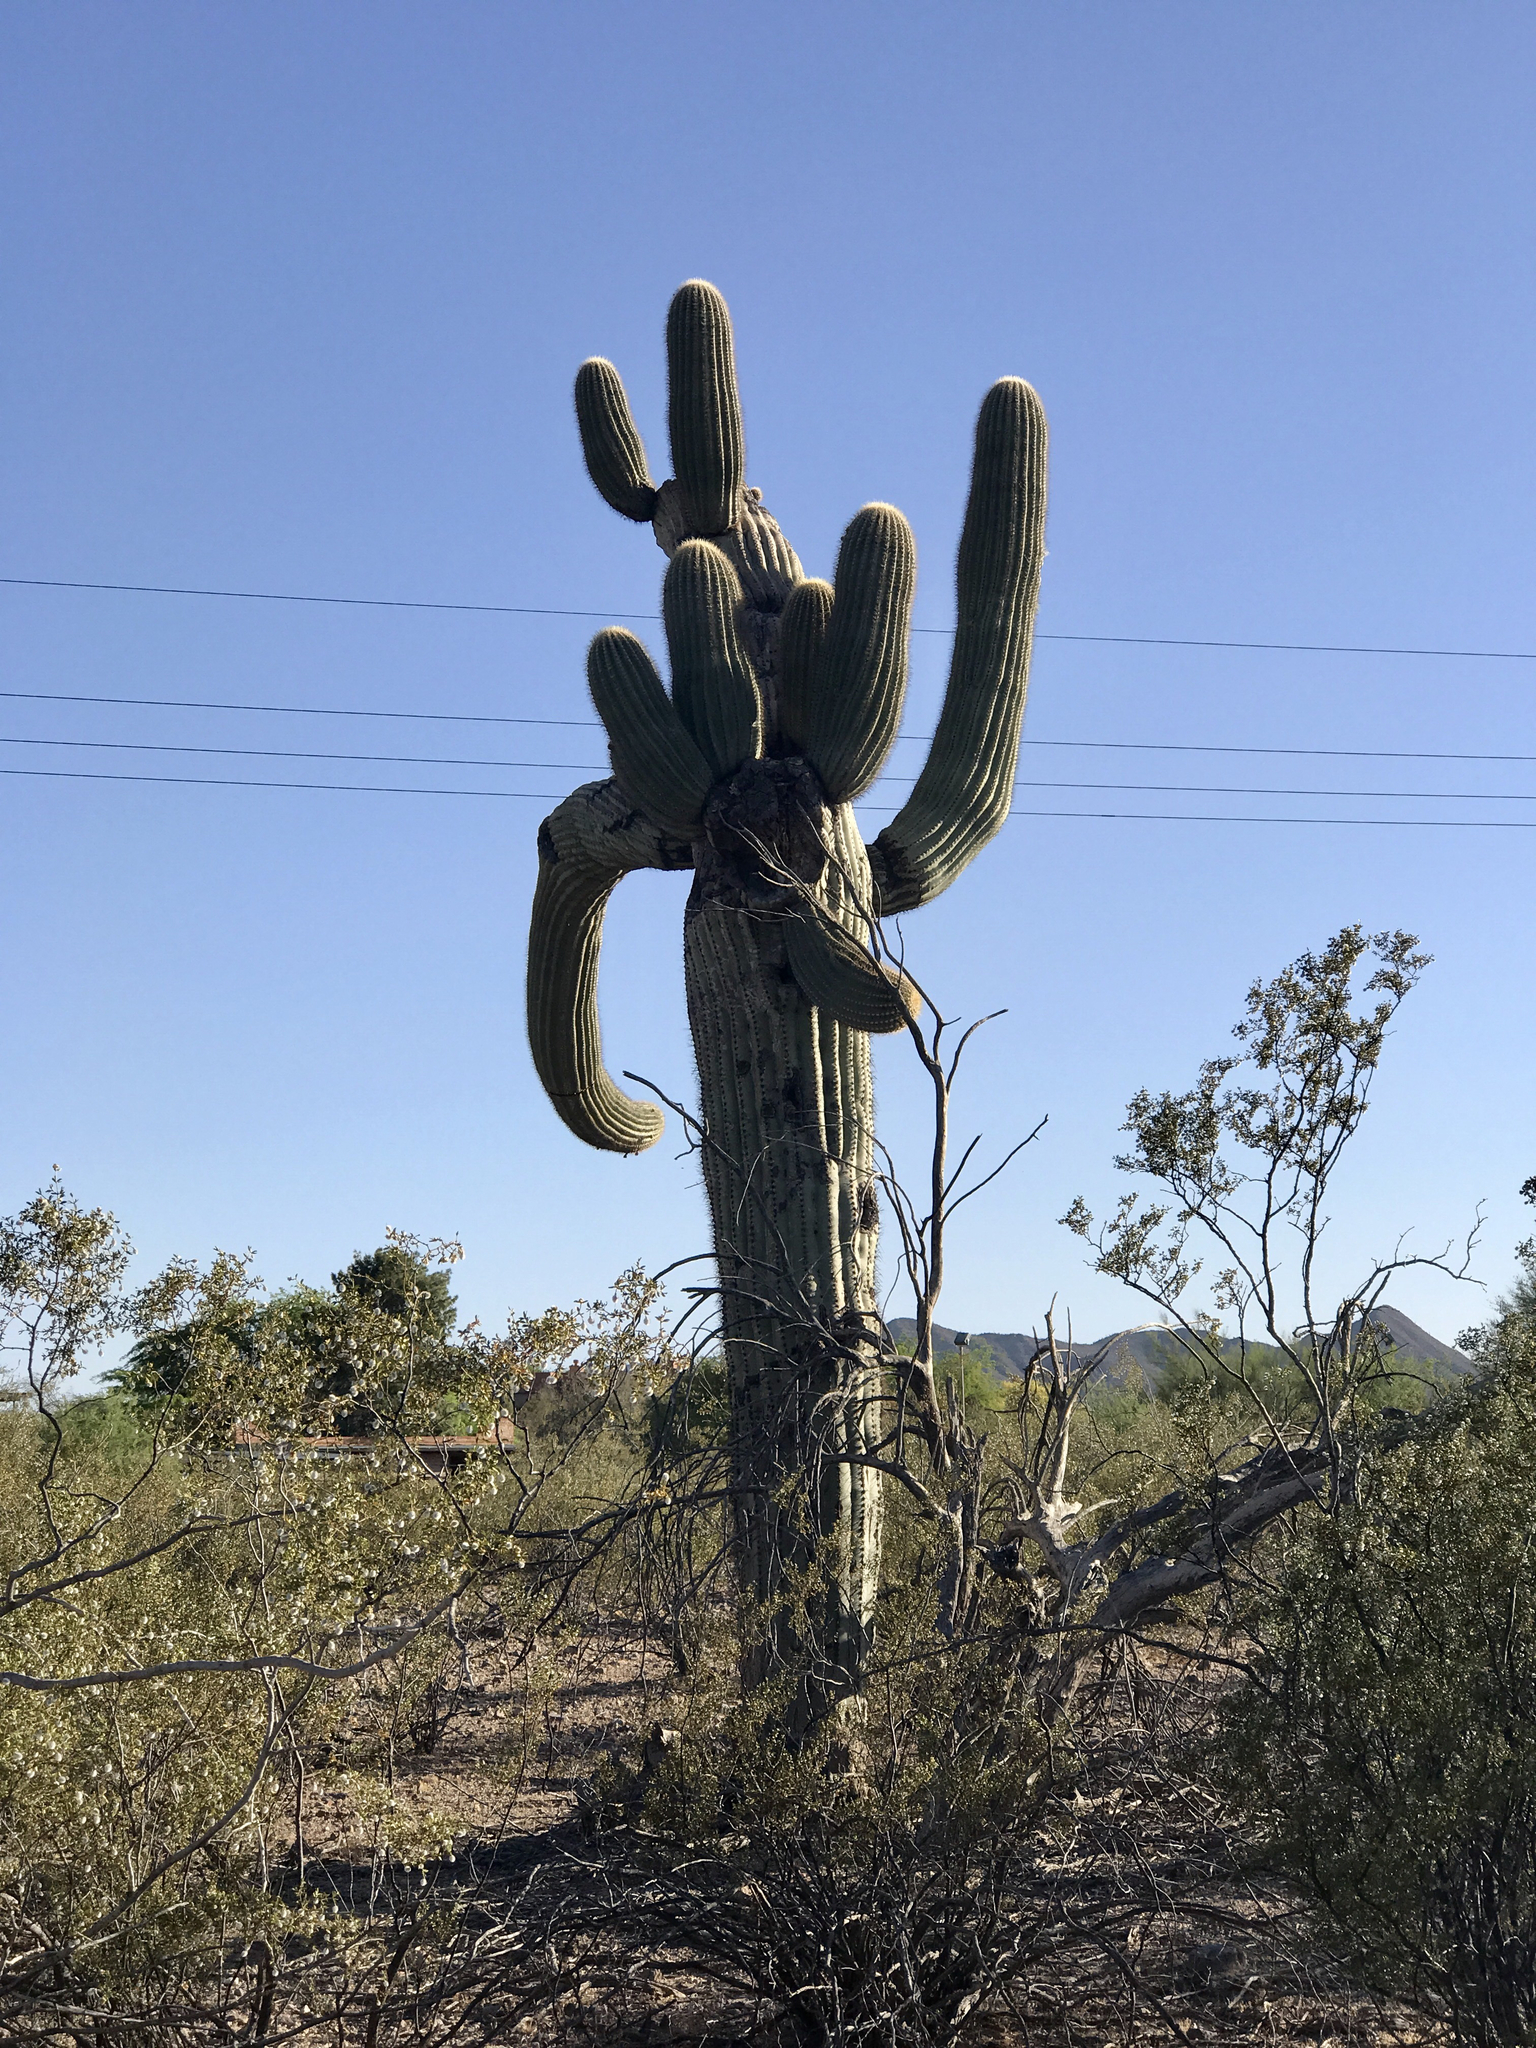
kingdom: Plantae
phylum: Tracheophyta
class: Magnoliopsida
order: Caryophyllales
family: Cactaceae
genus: Carnegiea
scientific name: Carnegiea gigantea
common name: Saguaro
